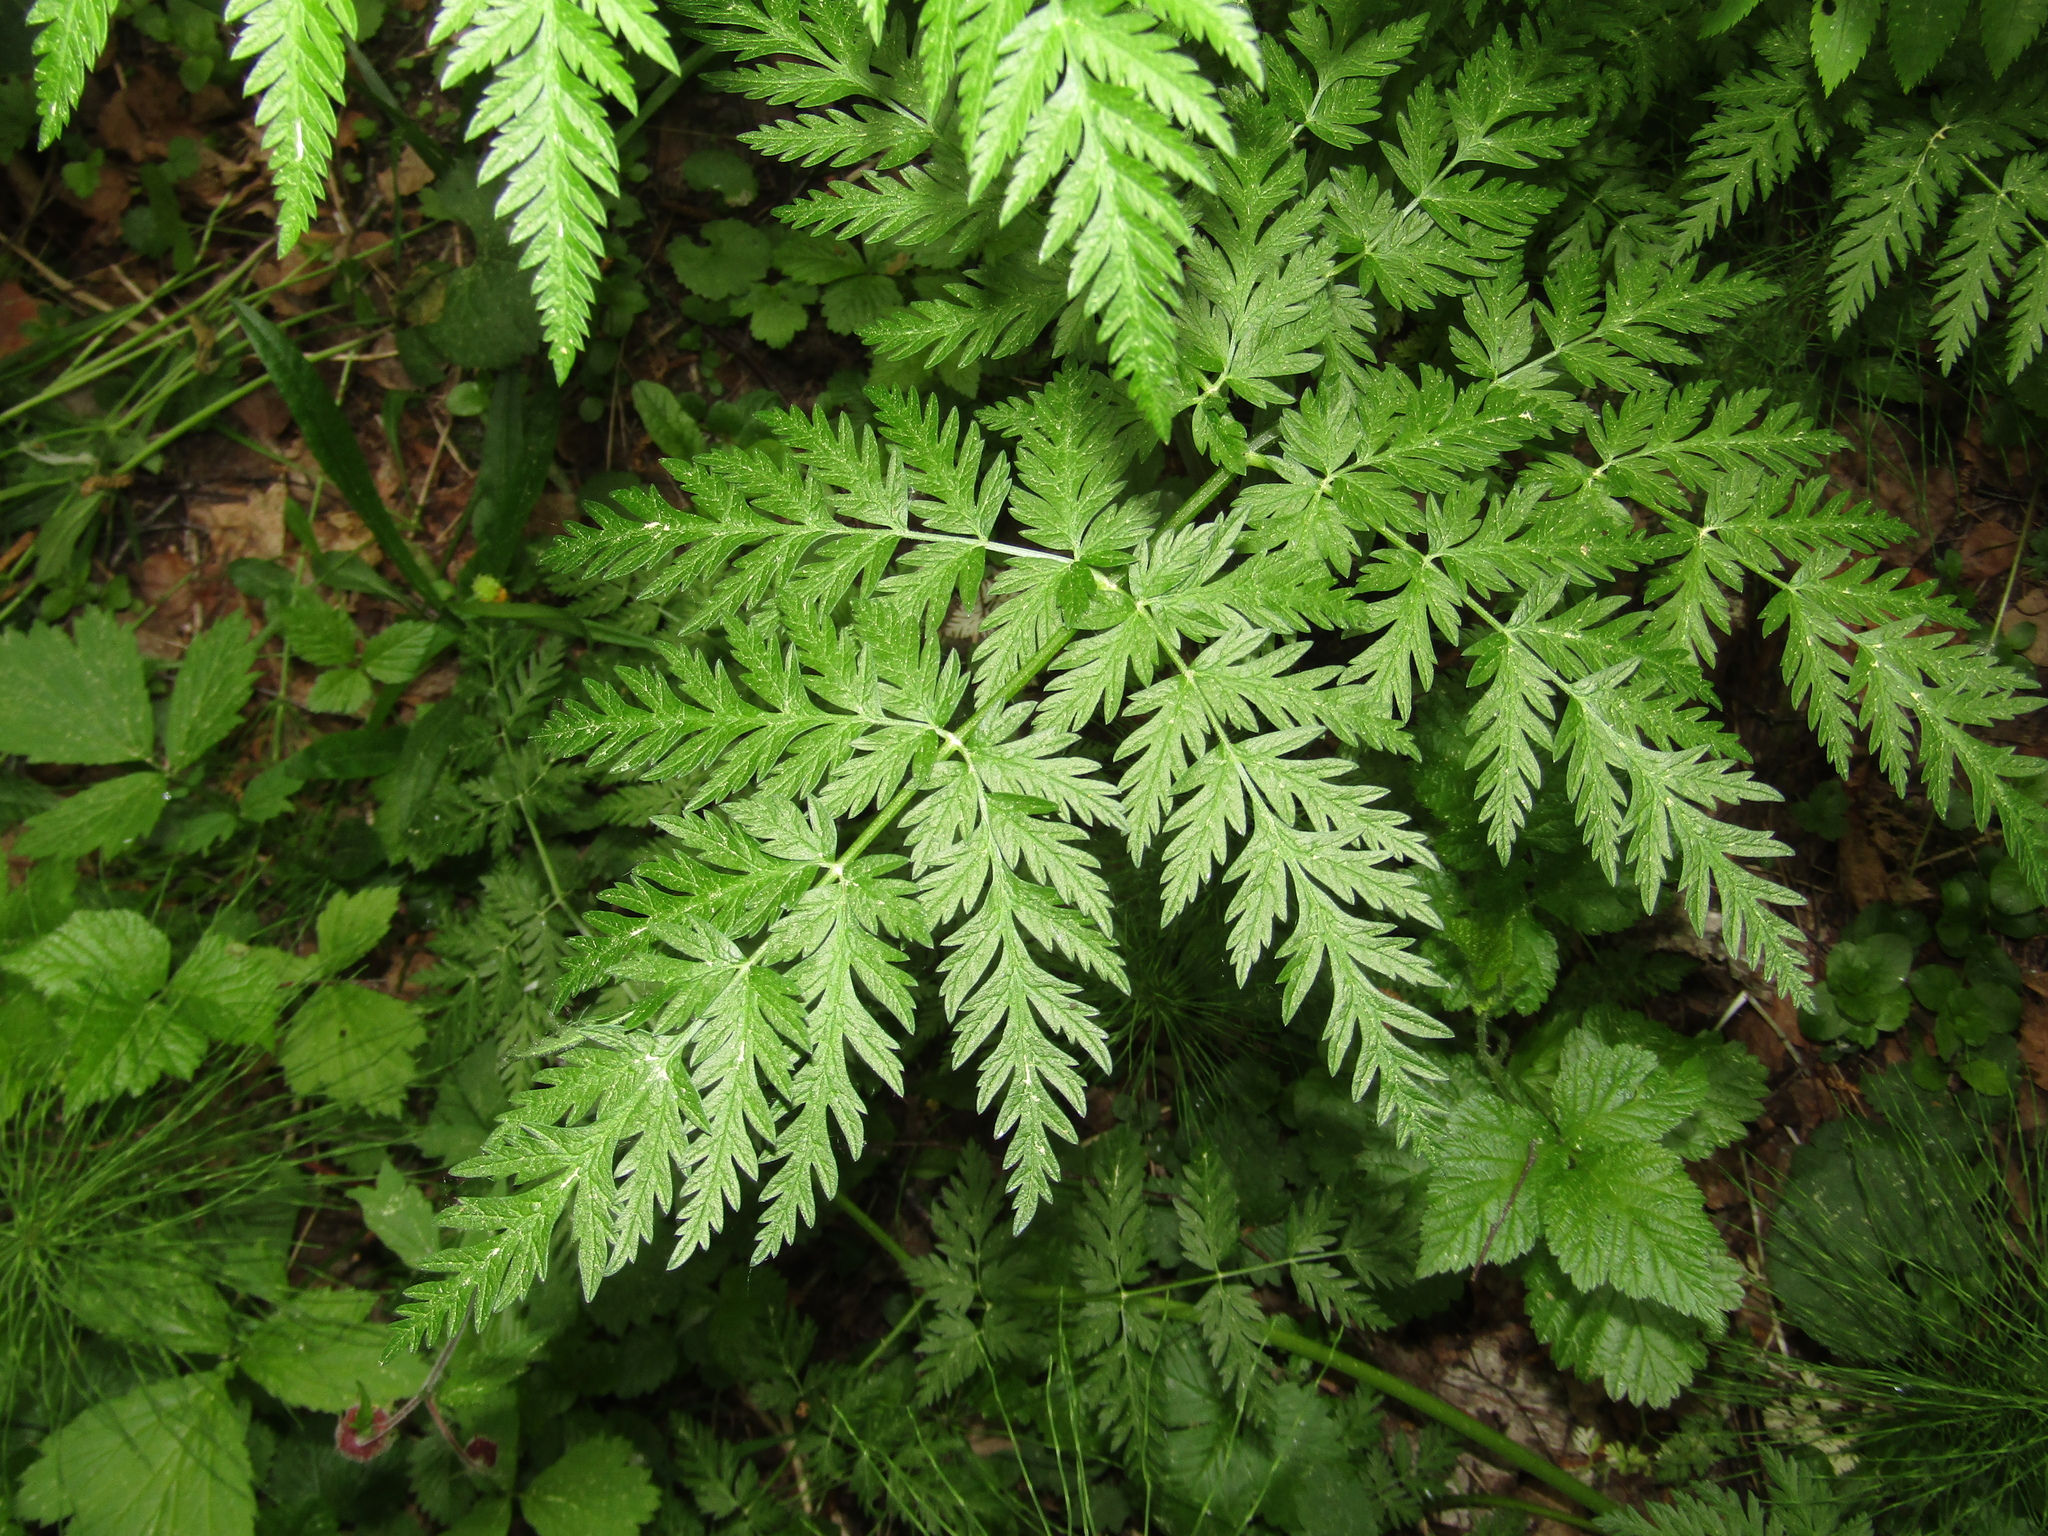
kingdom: Plantae
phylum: Tracheophyta
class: Magnoliopsida
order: Apiales
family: Apiaceae
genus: Anthriscus
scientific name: Anthriscus sylvestris
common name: Cow parsley
